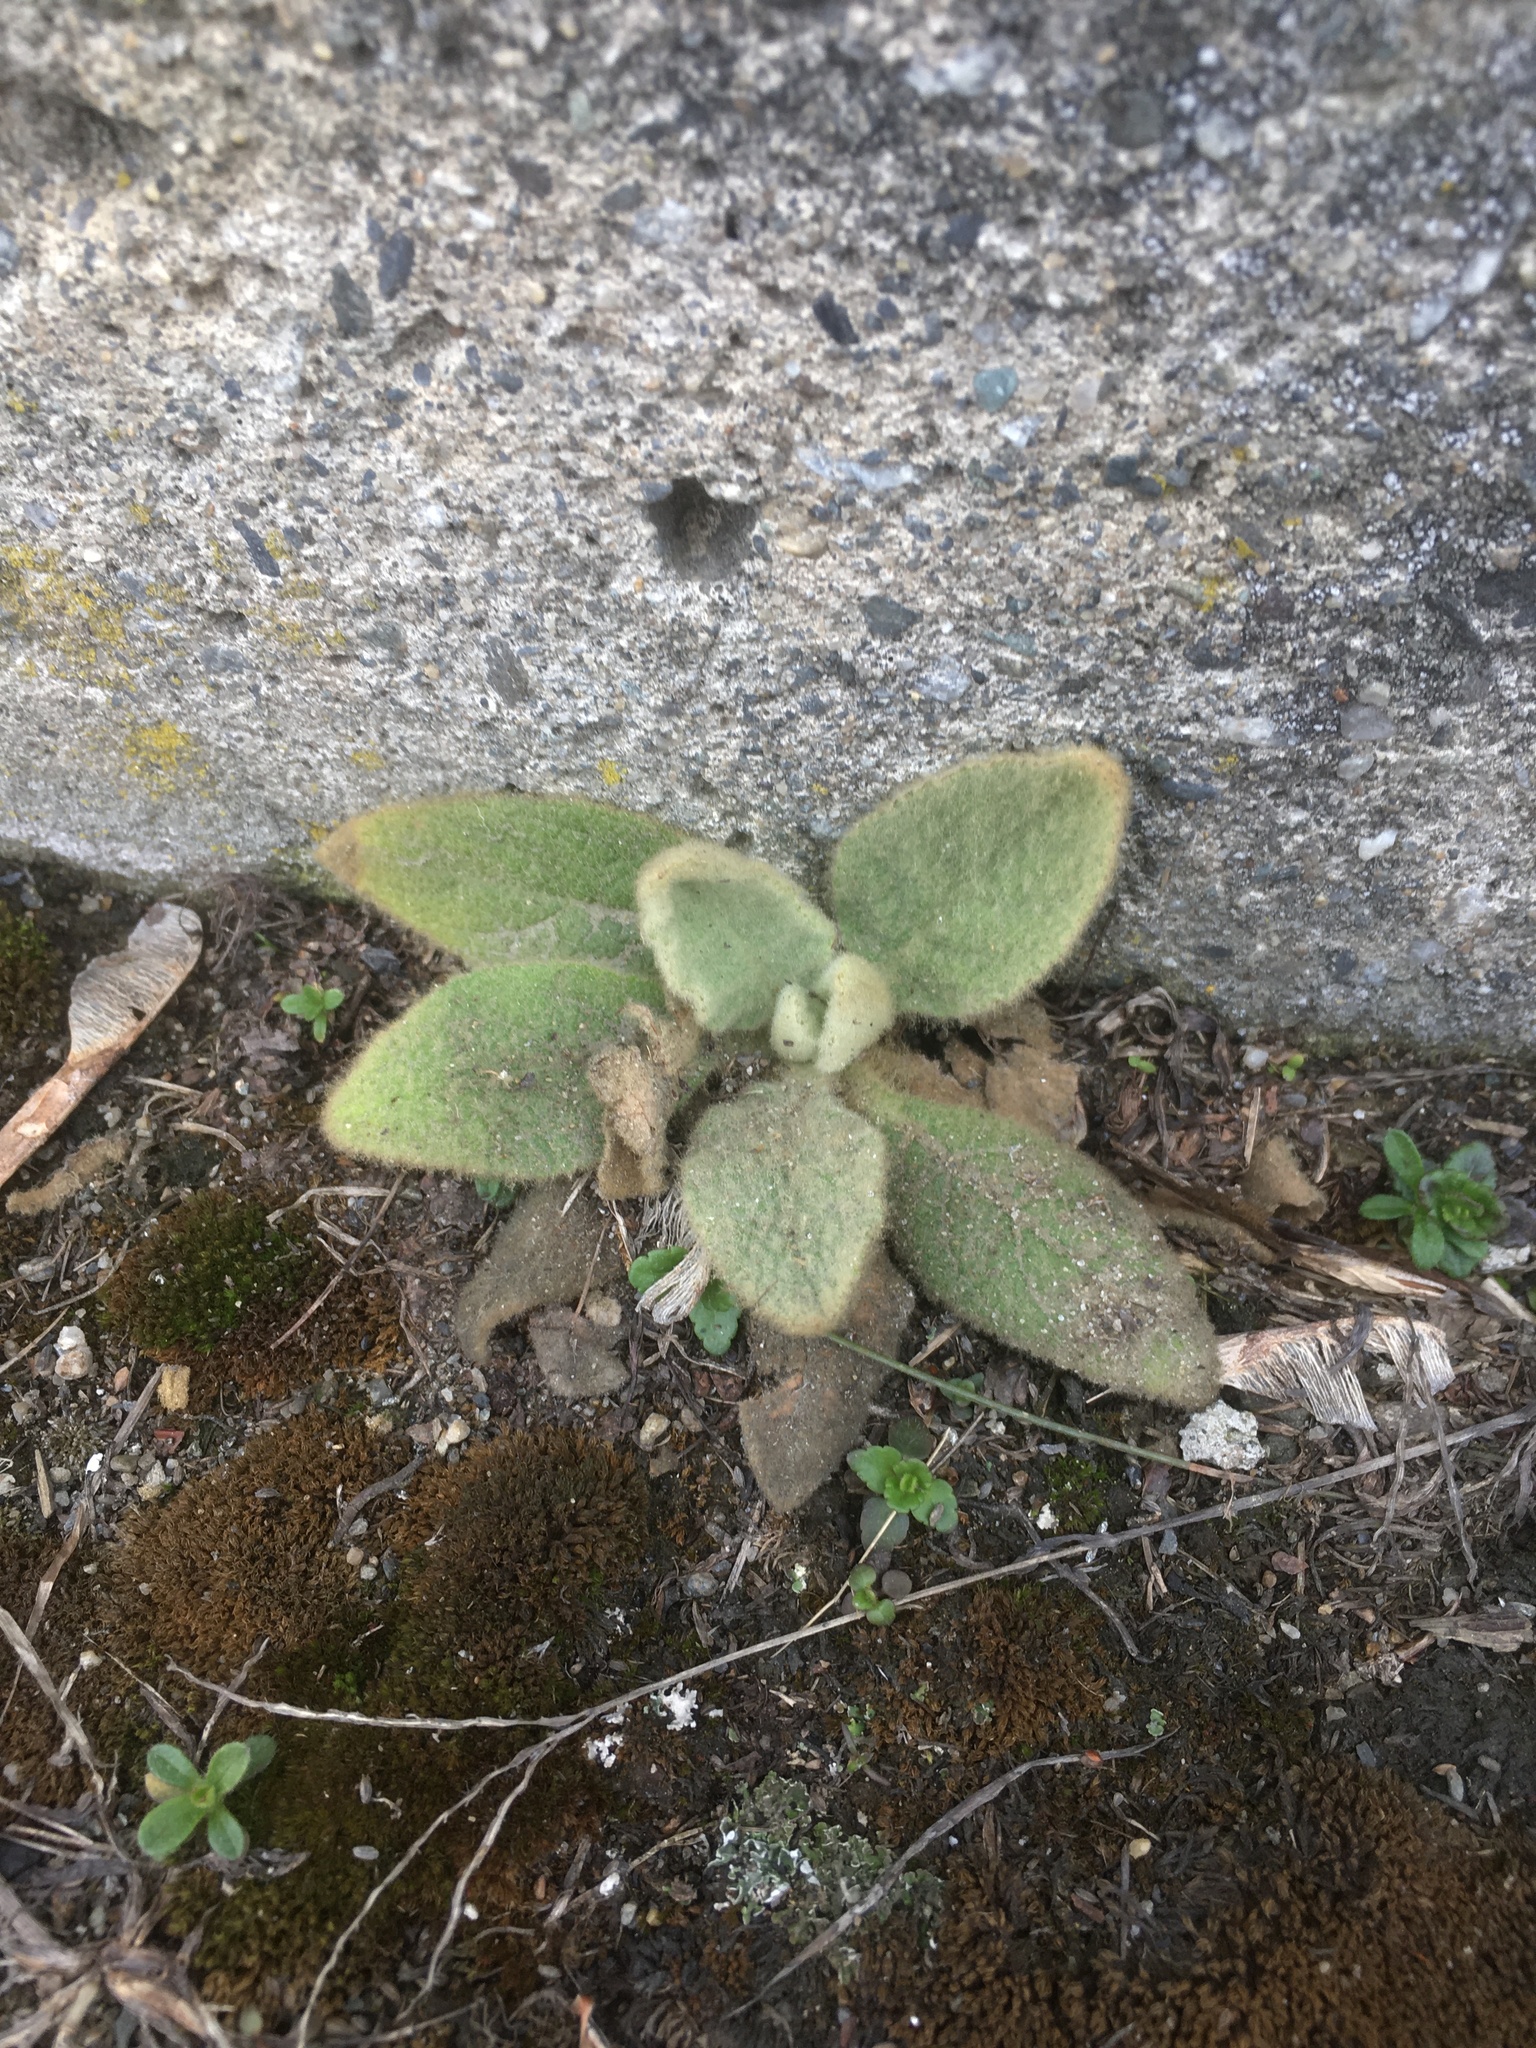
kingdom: Plantae
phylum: Tracheophyta
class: Magnoliopsida
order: Lamiales
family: Scrophulariaceae
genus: Verbascum
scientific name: Verbascum thapsus
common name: Common mullein
